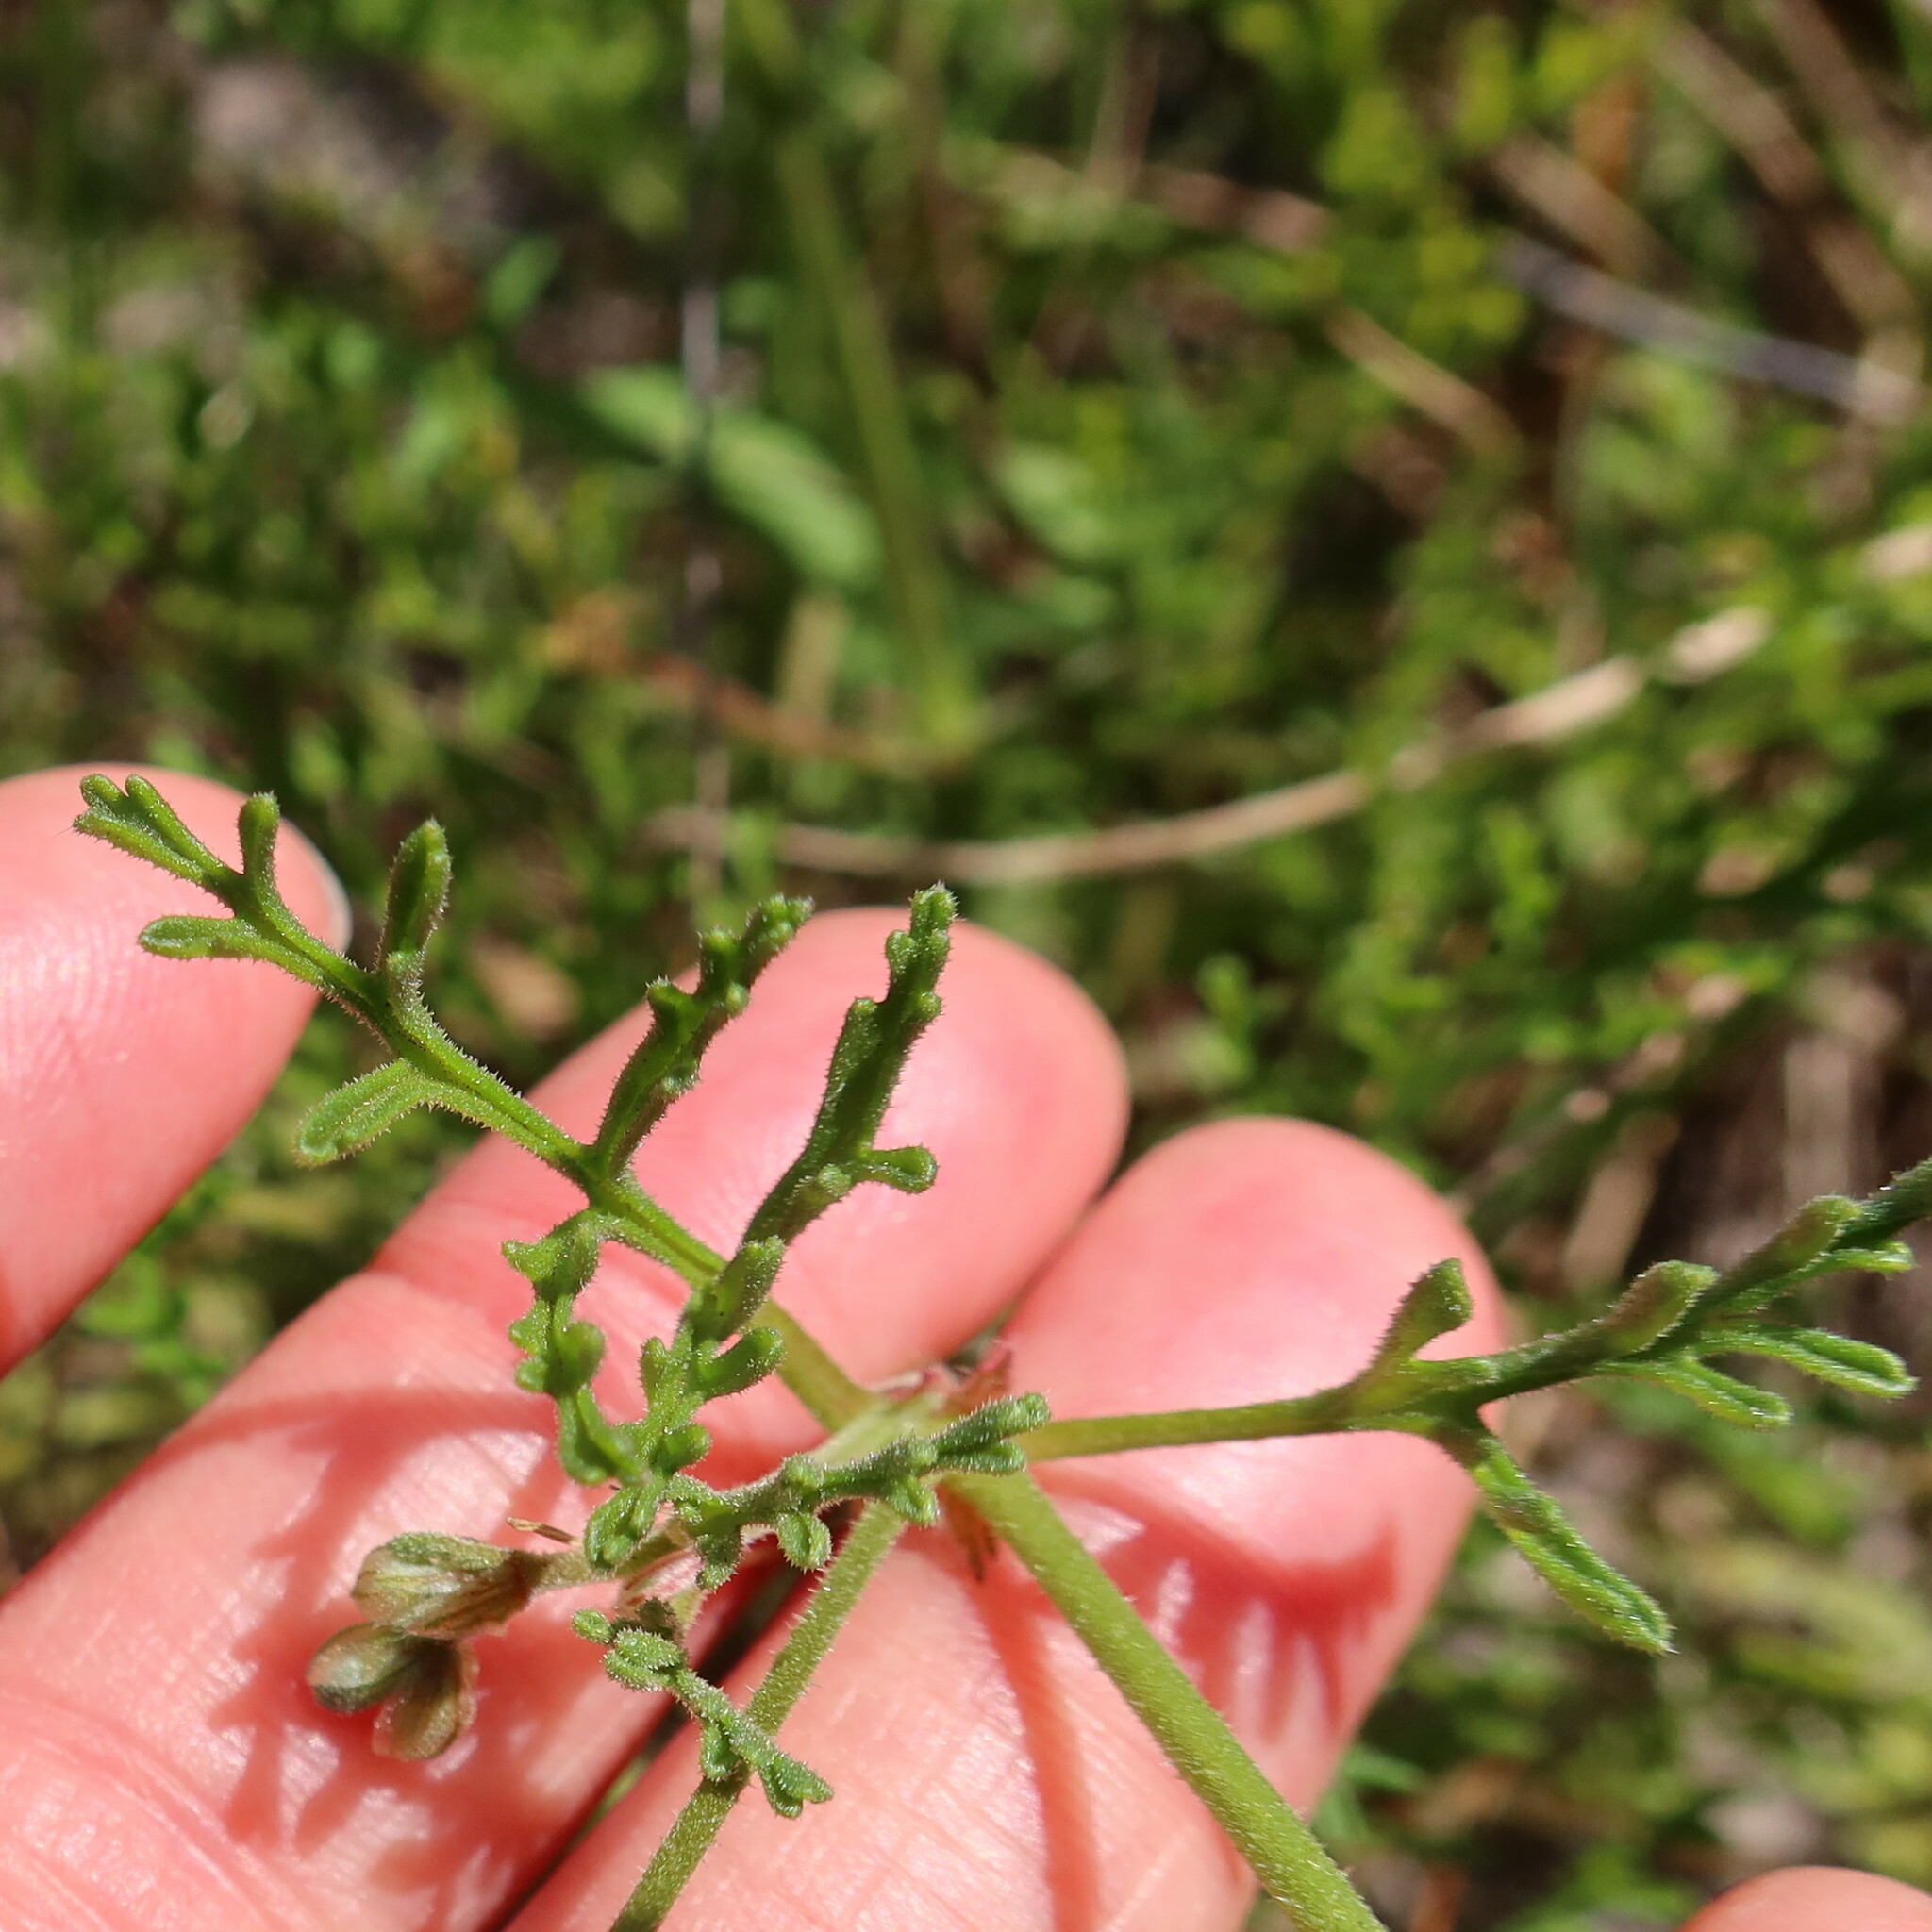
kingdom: Plantae
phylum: Tracheophyta
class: Magnoliopsida
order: Geraniales
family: Geraniaceae
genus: Pelargonium
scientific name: Pelargonium senecioides
